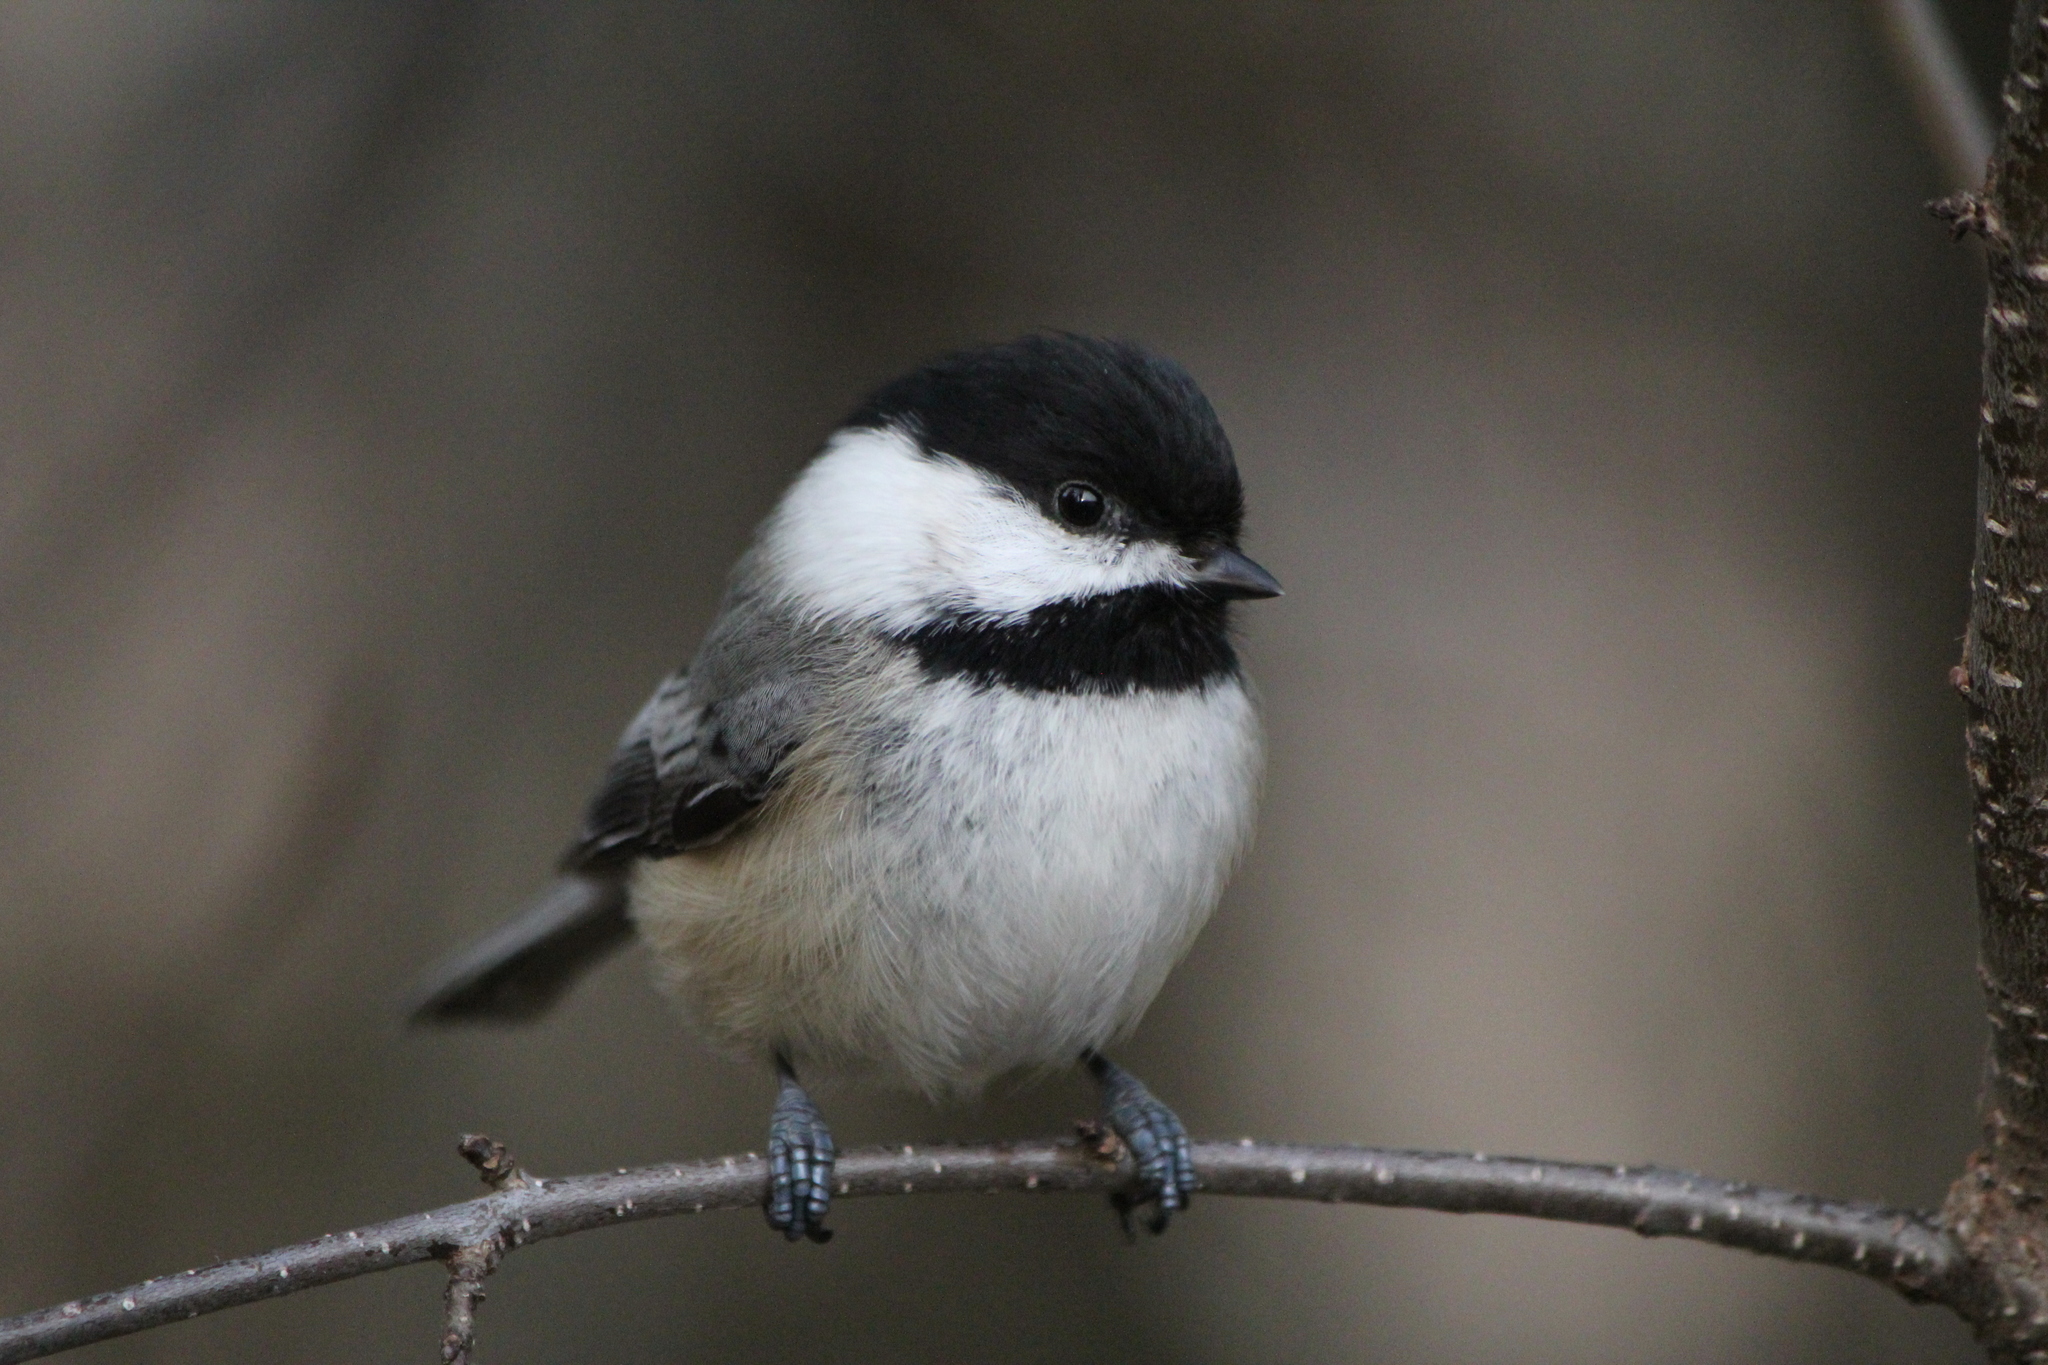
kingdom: Animalia
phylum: Chordata
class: Aves
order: Passeriformes
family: Paridae
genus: Poecile
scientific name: Poecile atricapillus
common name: Black-capped chickadee
